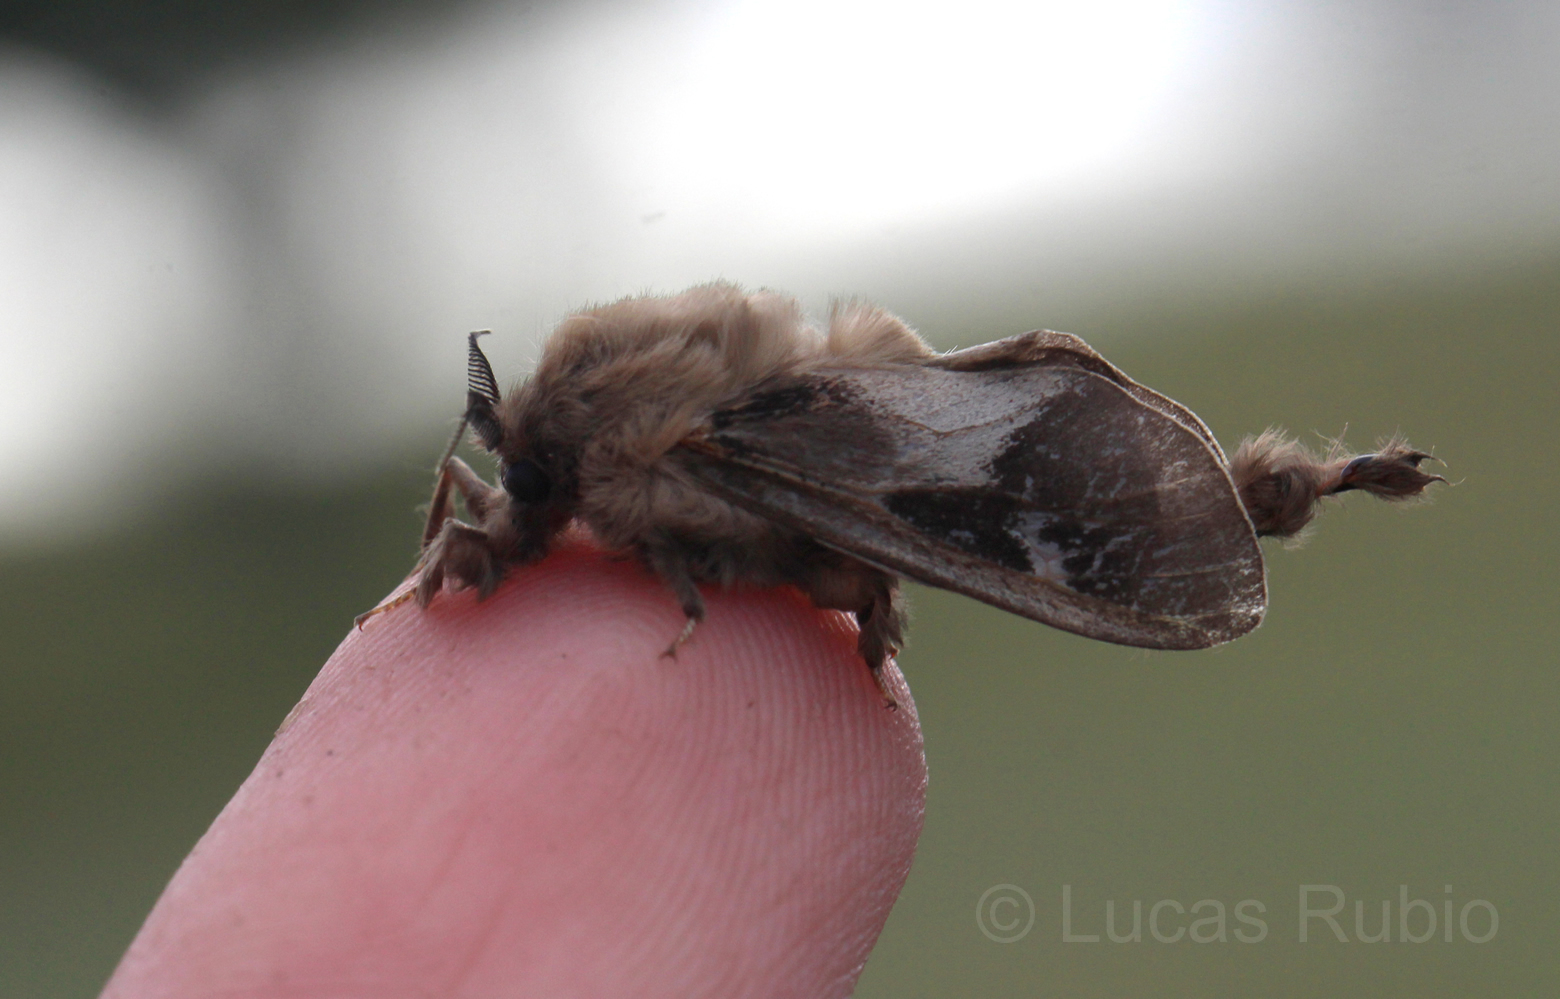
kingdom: Animalia
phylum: Arthropoda
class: Insecta
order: Lepidoptera
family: Psychidae
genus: Oiketicus
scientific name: Oiketicus
